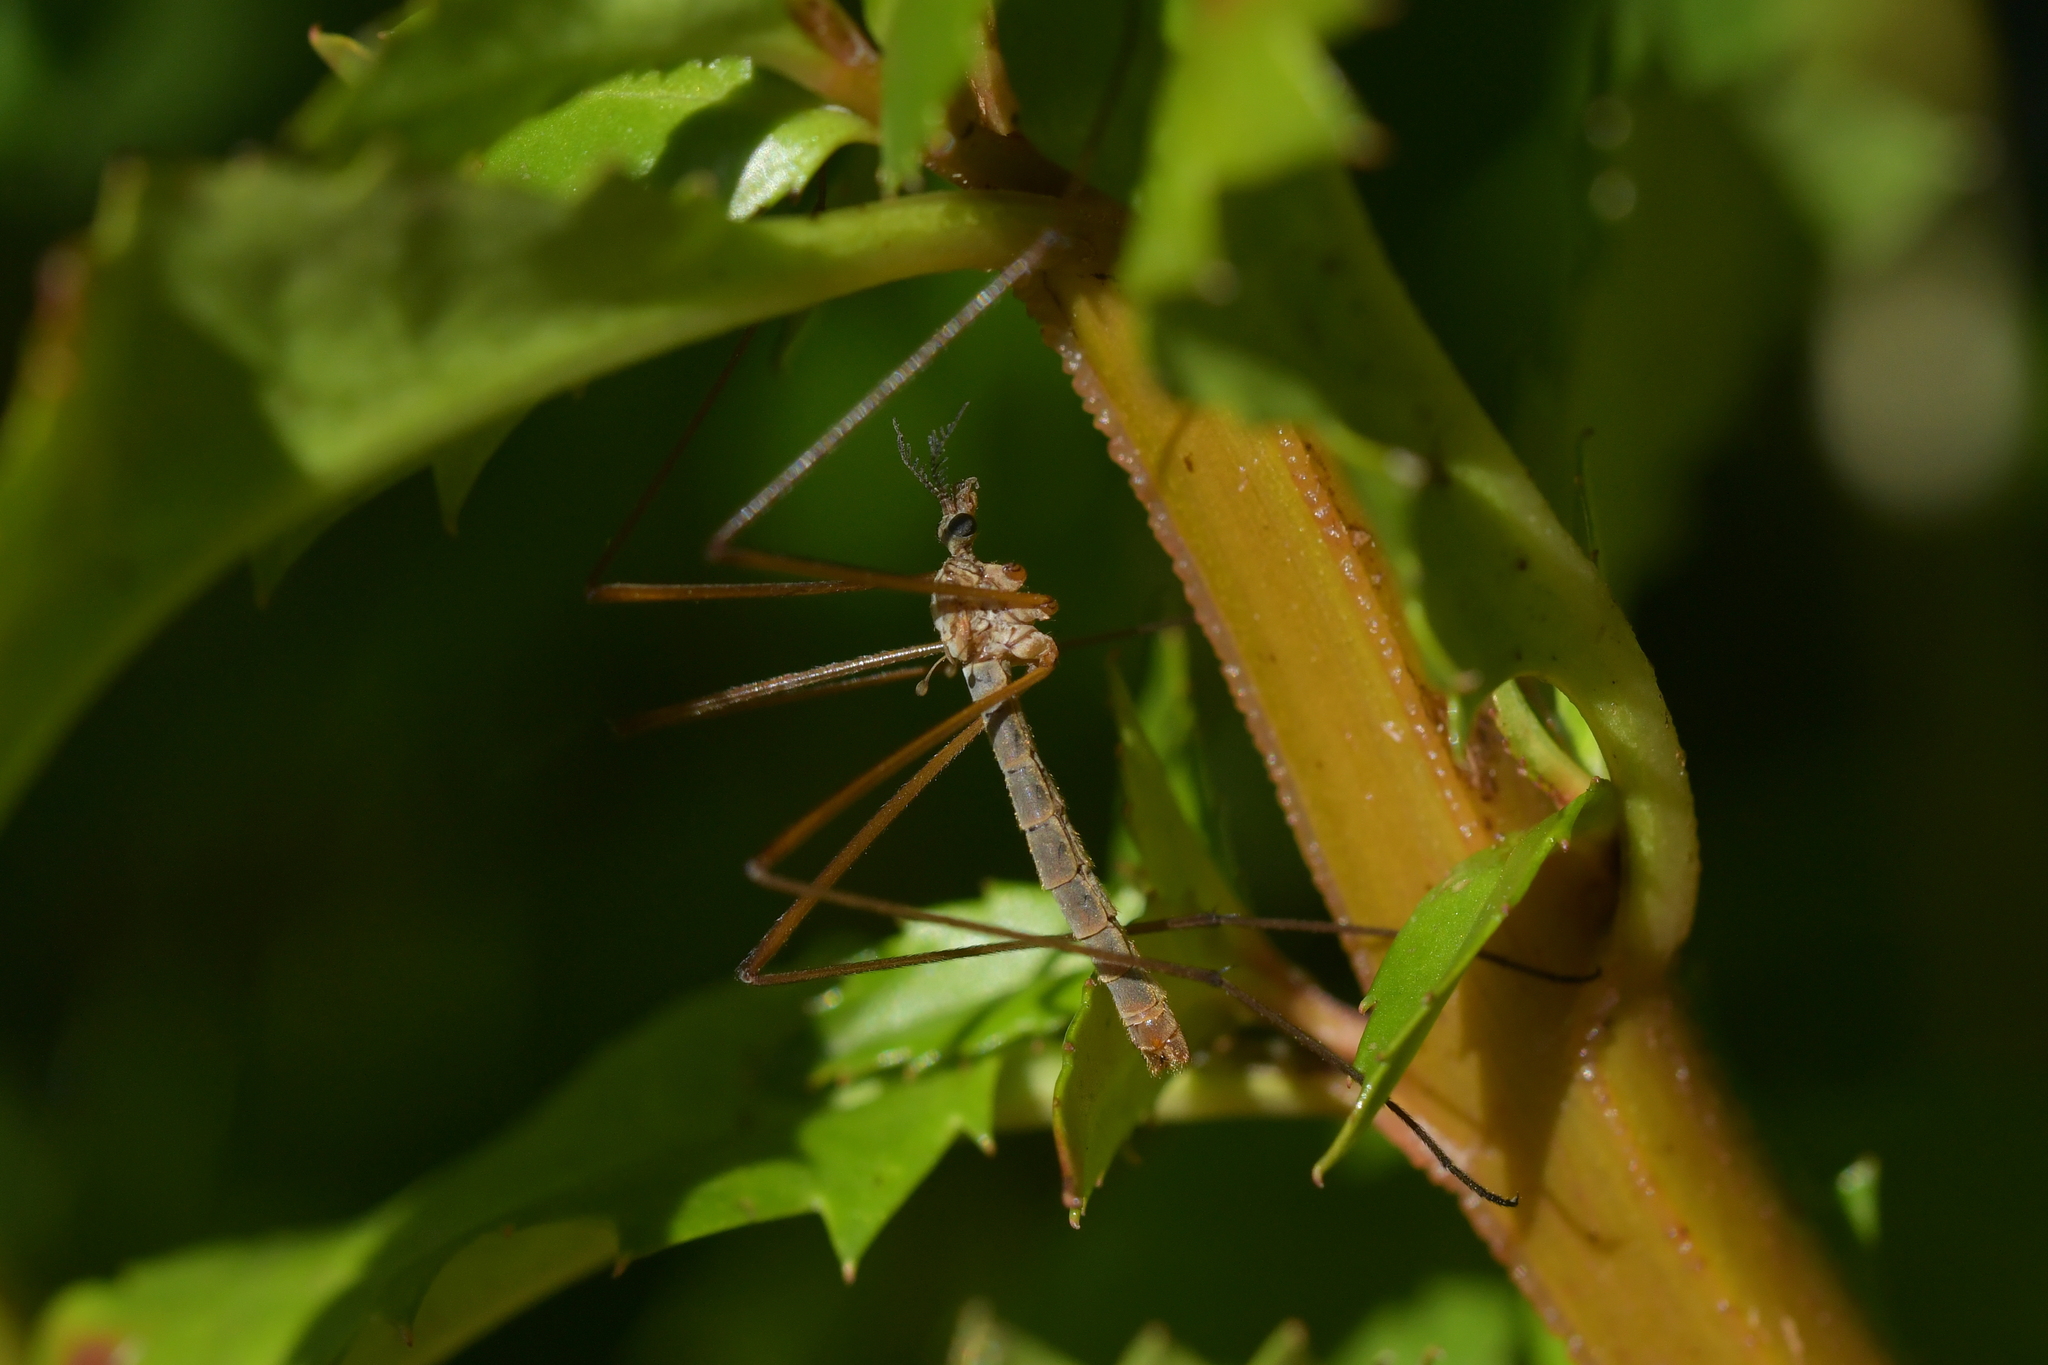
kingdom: Animalia
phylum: Arthropoda
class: Insecta
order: Diptera
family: Limoniidae
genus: Gynoplistia
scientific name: Gynoplistia chathamica
